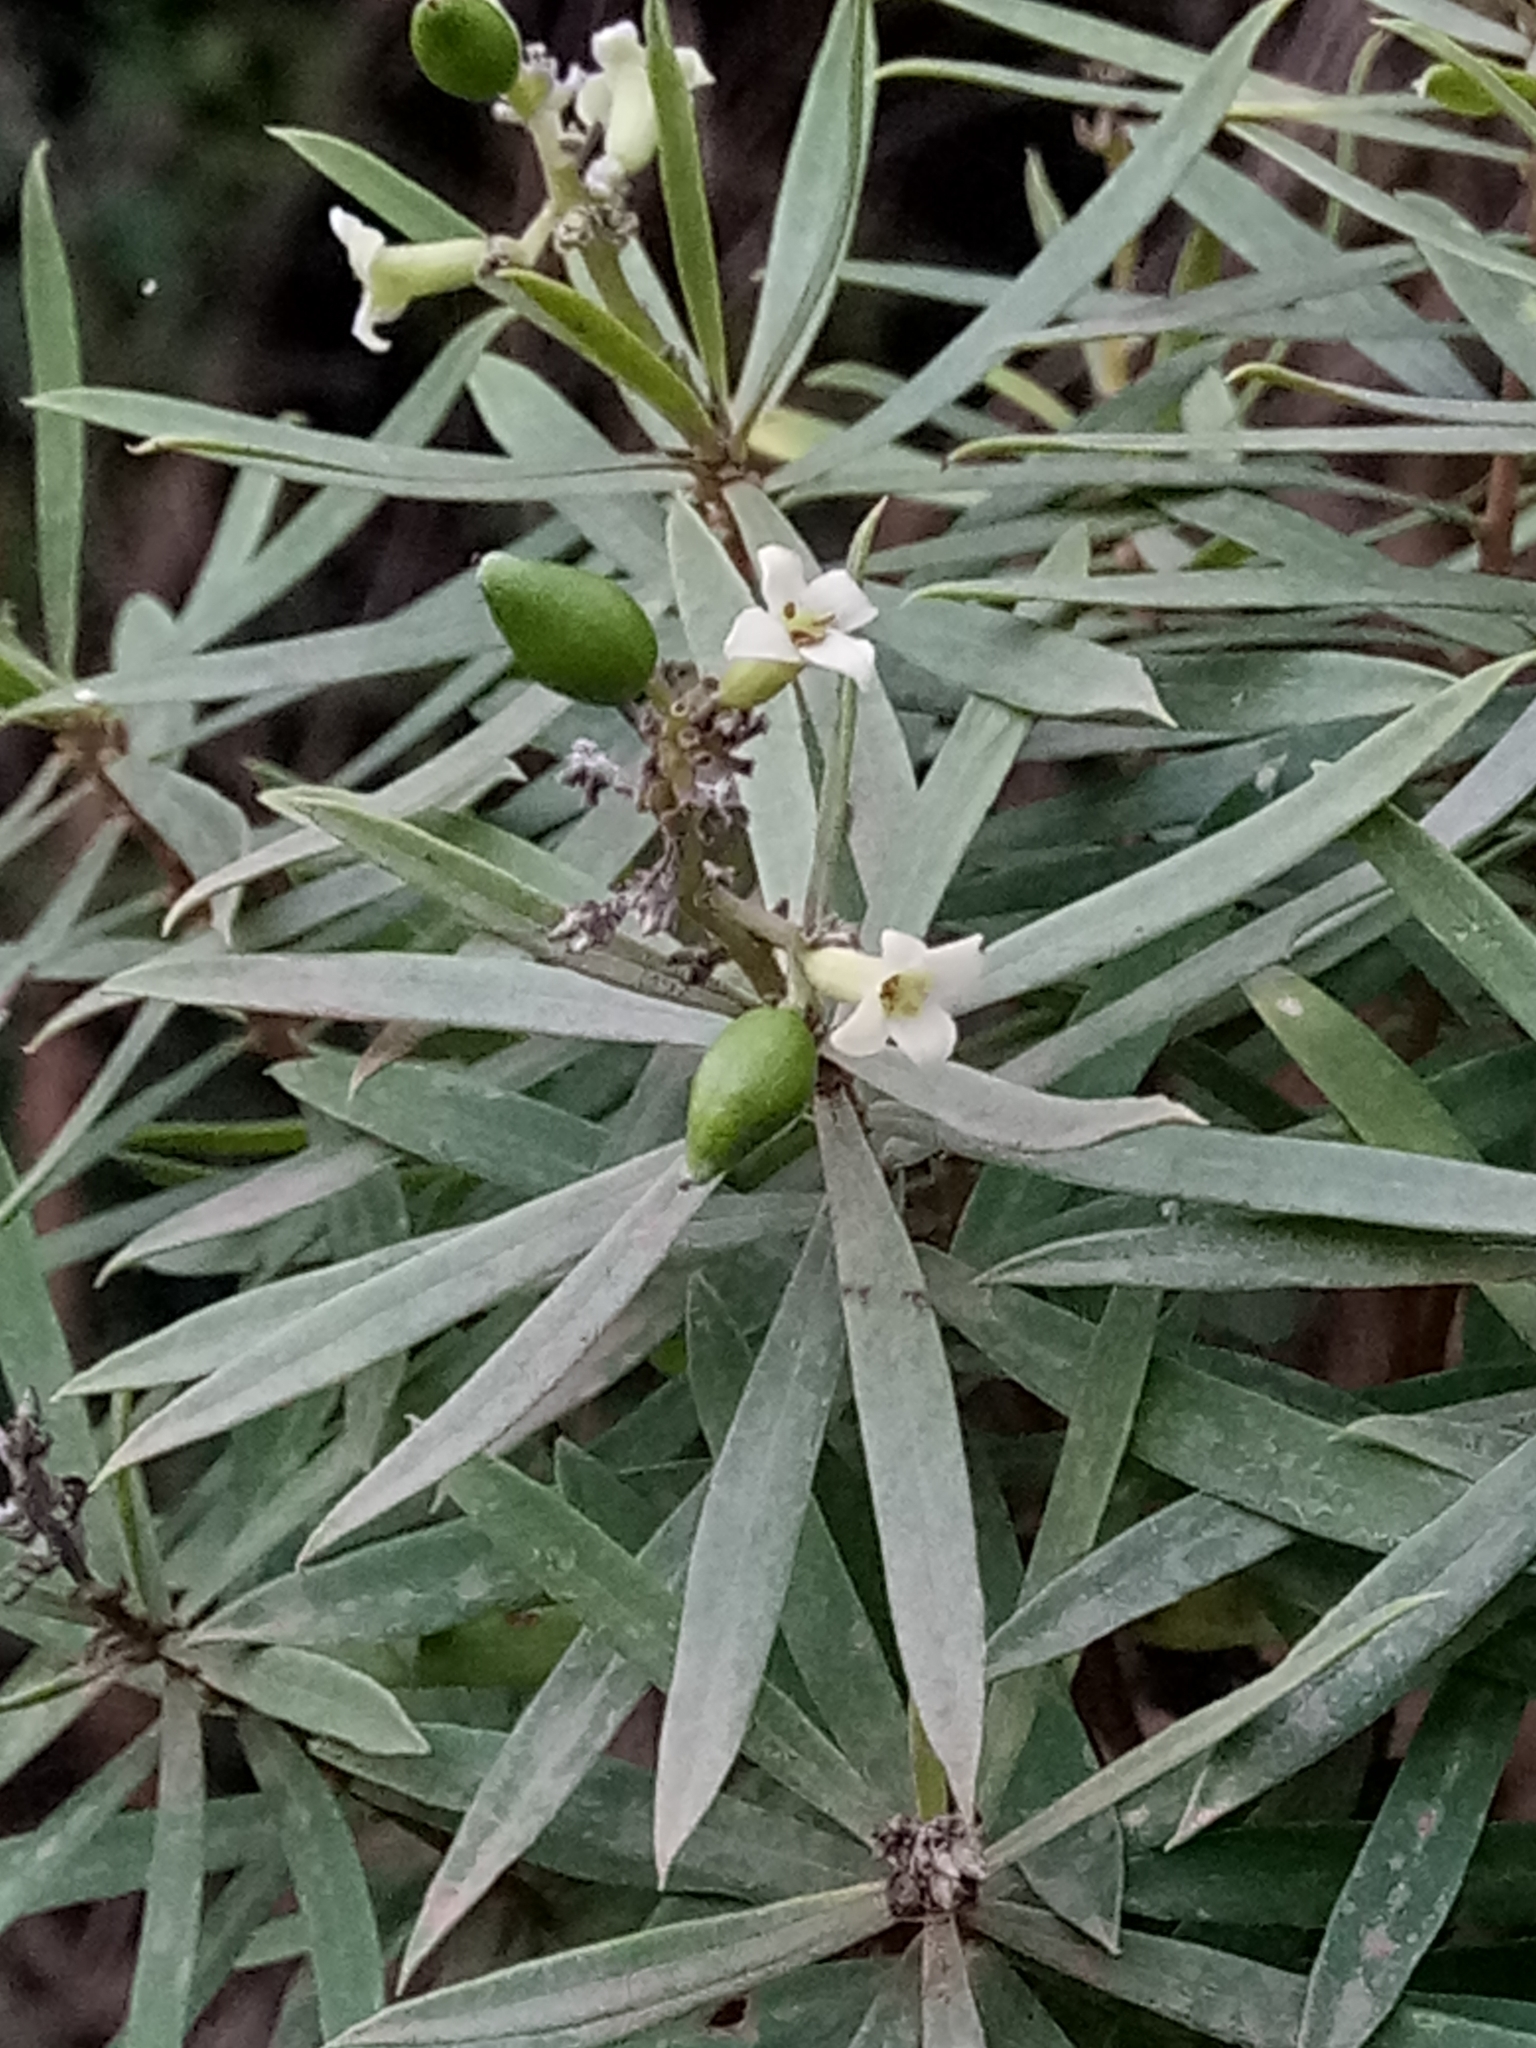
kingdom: Plantae
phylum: Tracheophyta
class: Magnoliopsida
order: Malvales
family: Thymelaeaceae
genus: Daphne
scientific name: Daphne gnidium
